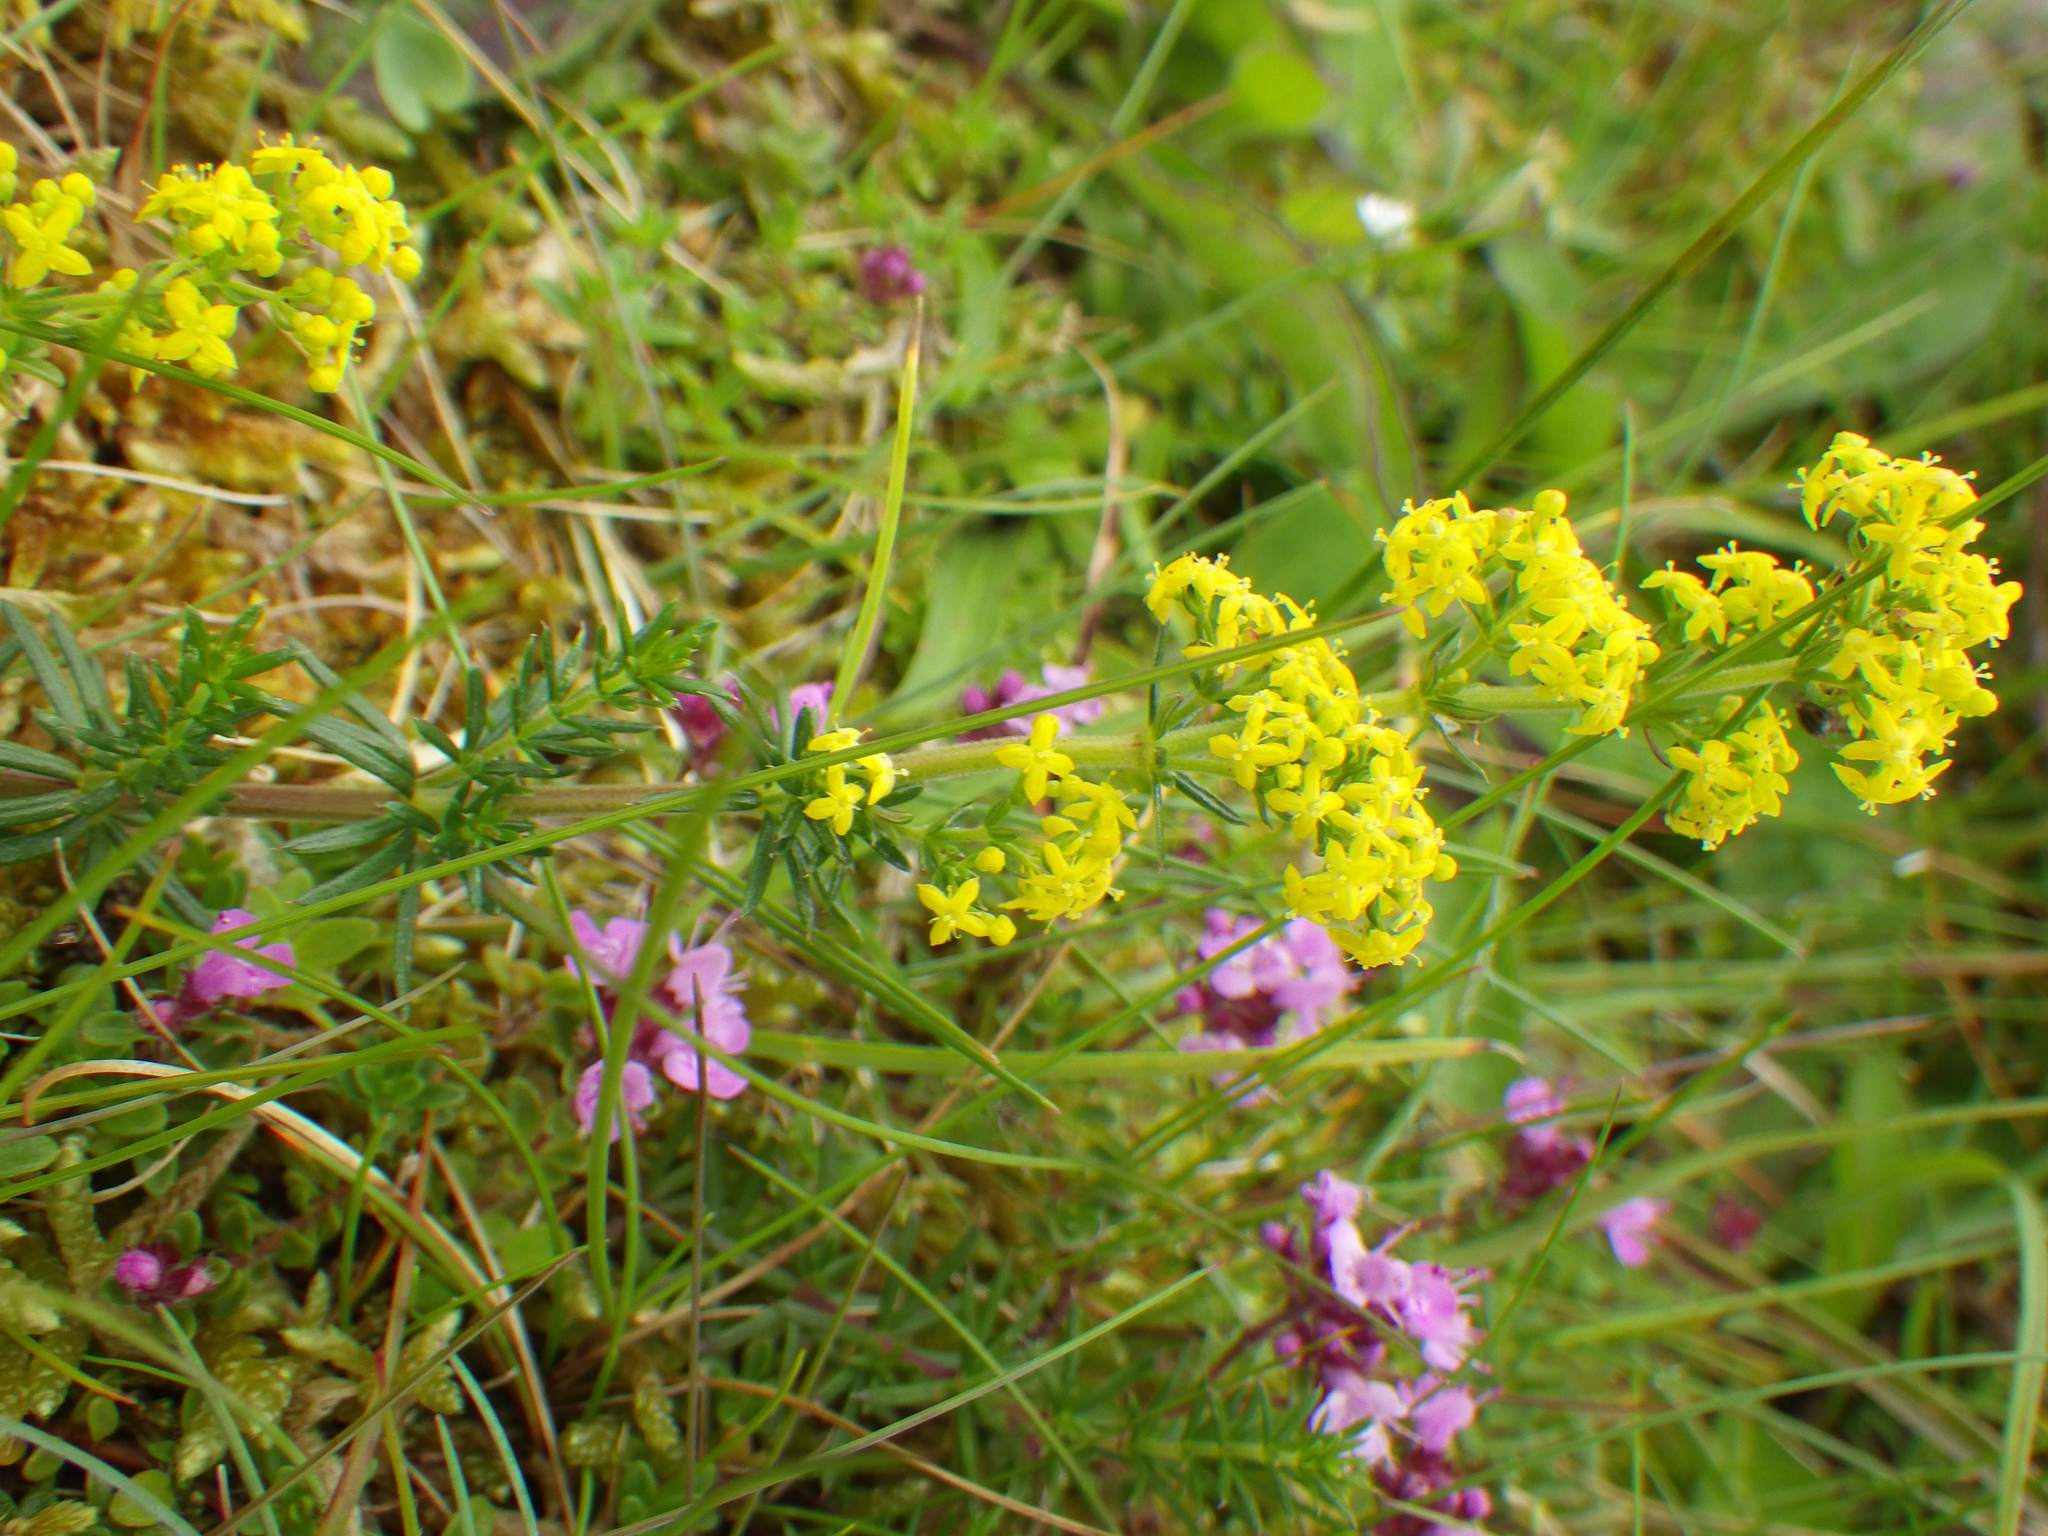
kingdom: Plantae
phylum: Tracheophyta
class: Magnoliopsida
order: Gentianales
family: Rubiaceae
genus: Galium
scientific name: Galium verum
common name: Lady's bedstraw
